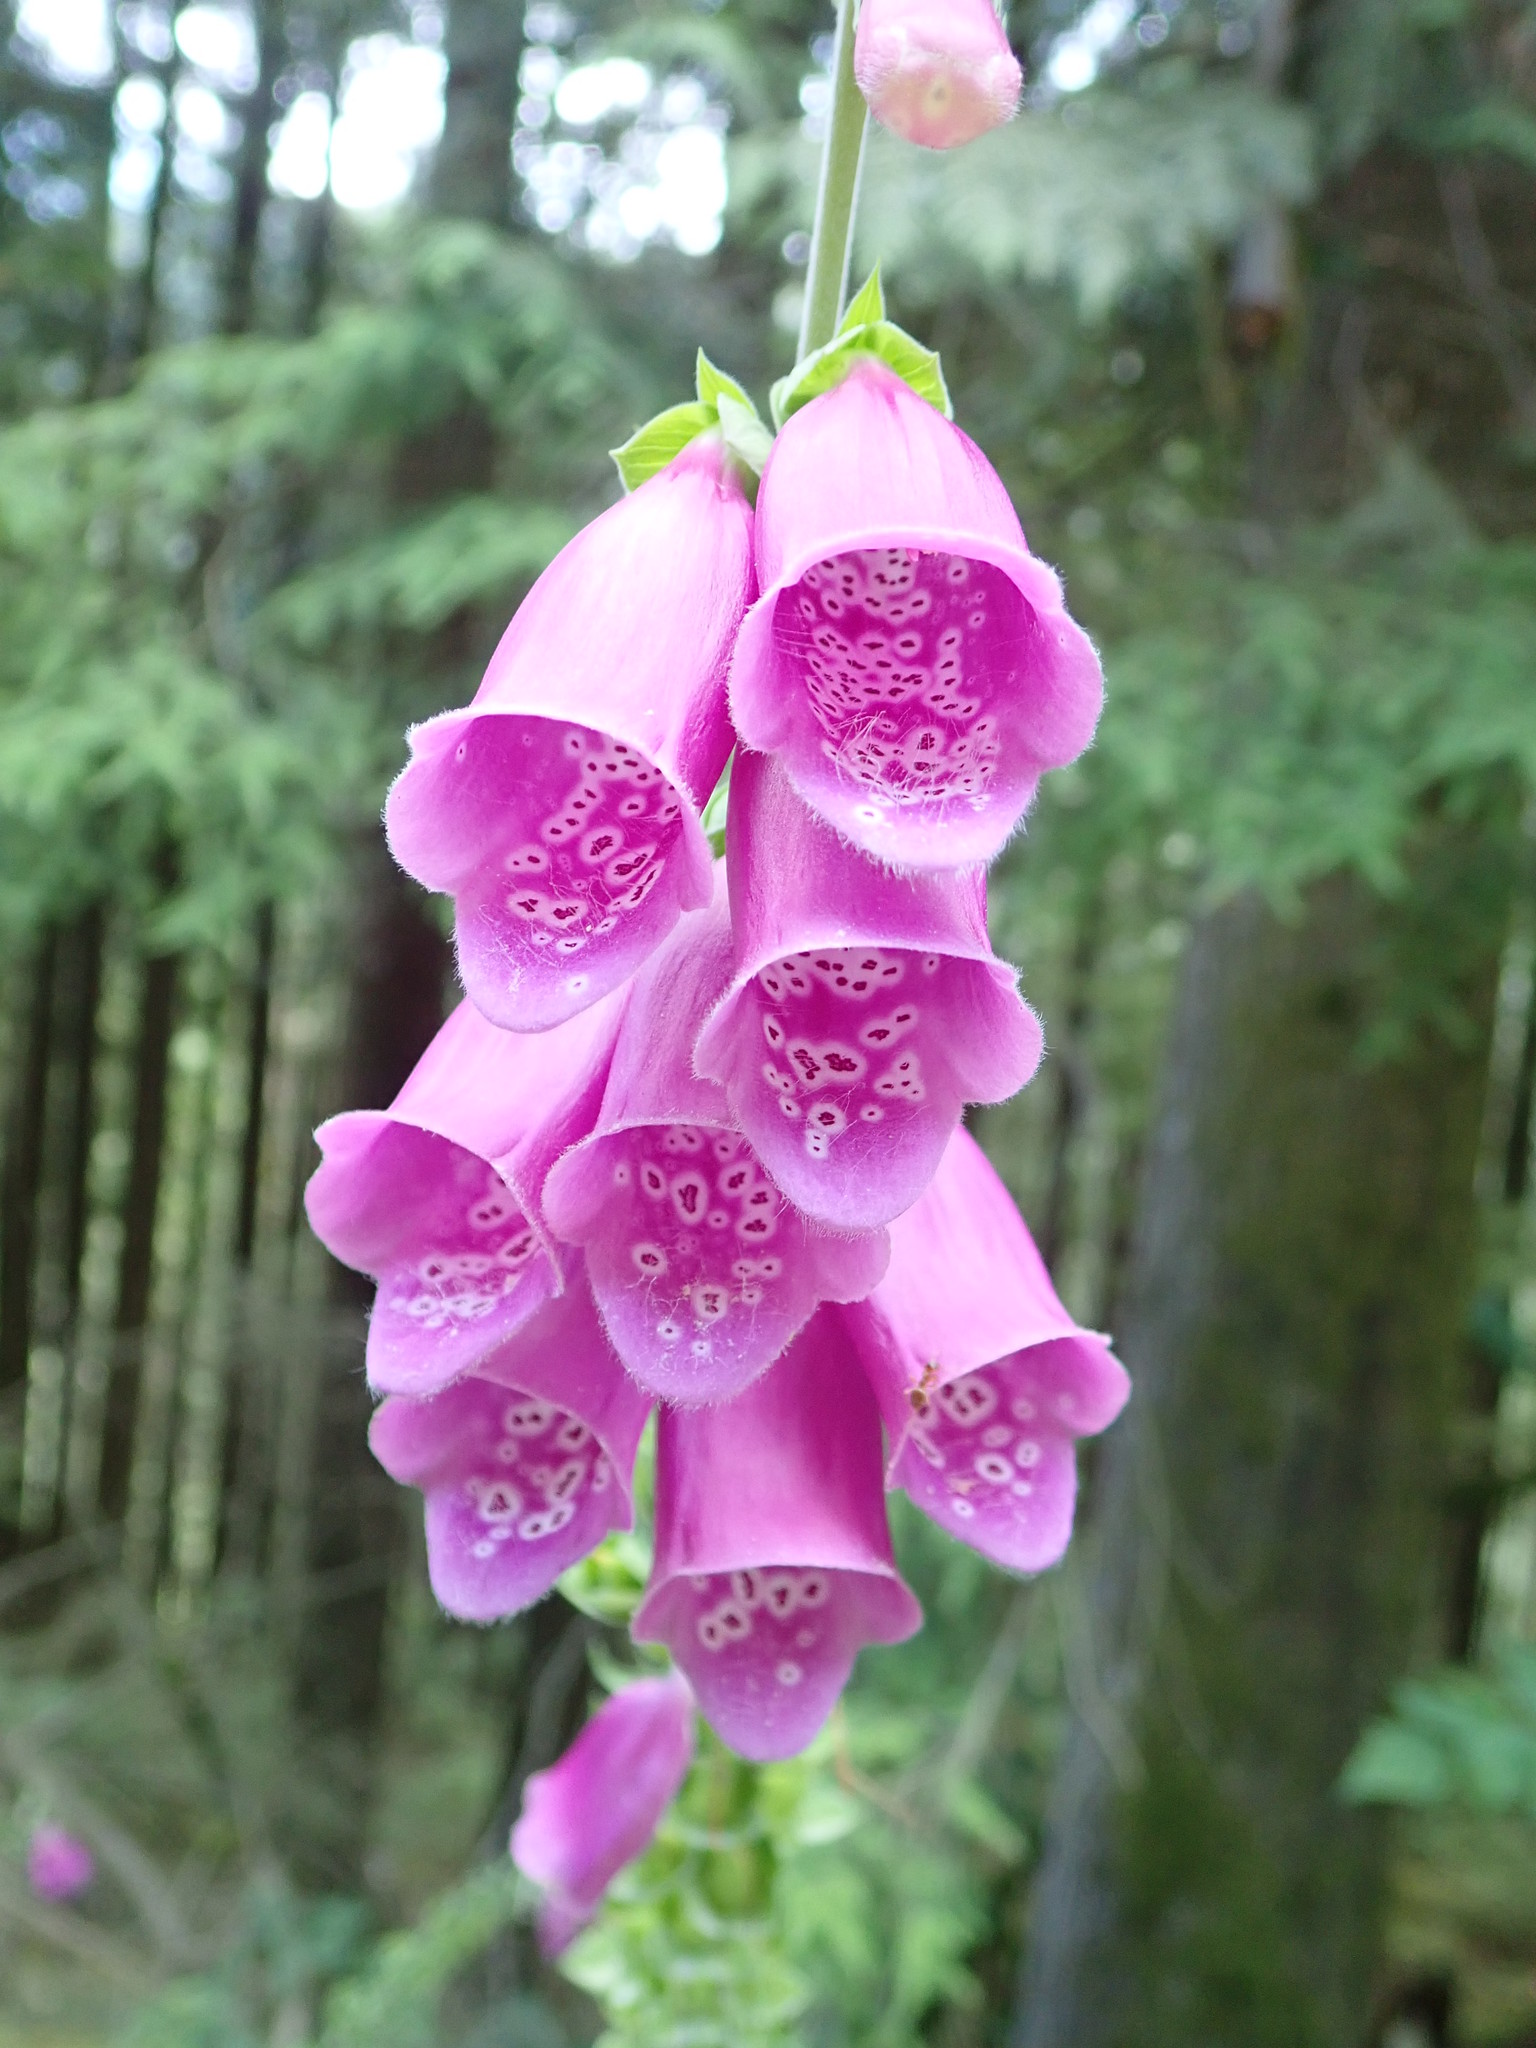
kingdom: Plantae
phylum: Tracheophyta
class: Magnoliopsida
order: Lamiales
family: Plantaginaceae
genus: Digitalis
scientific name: Digitalis purpurea
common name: Foxglove
